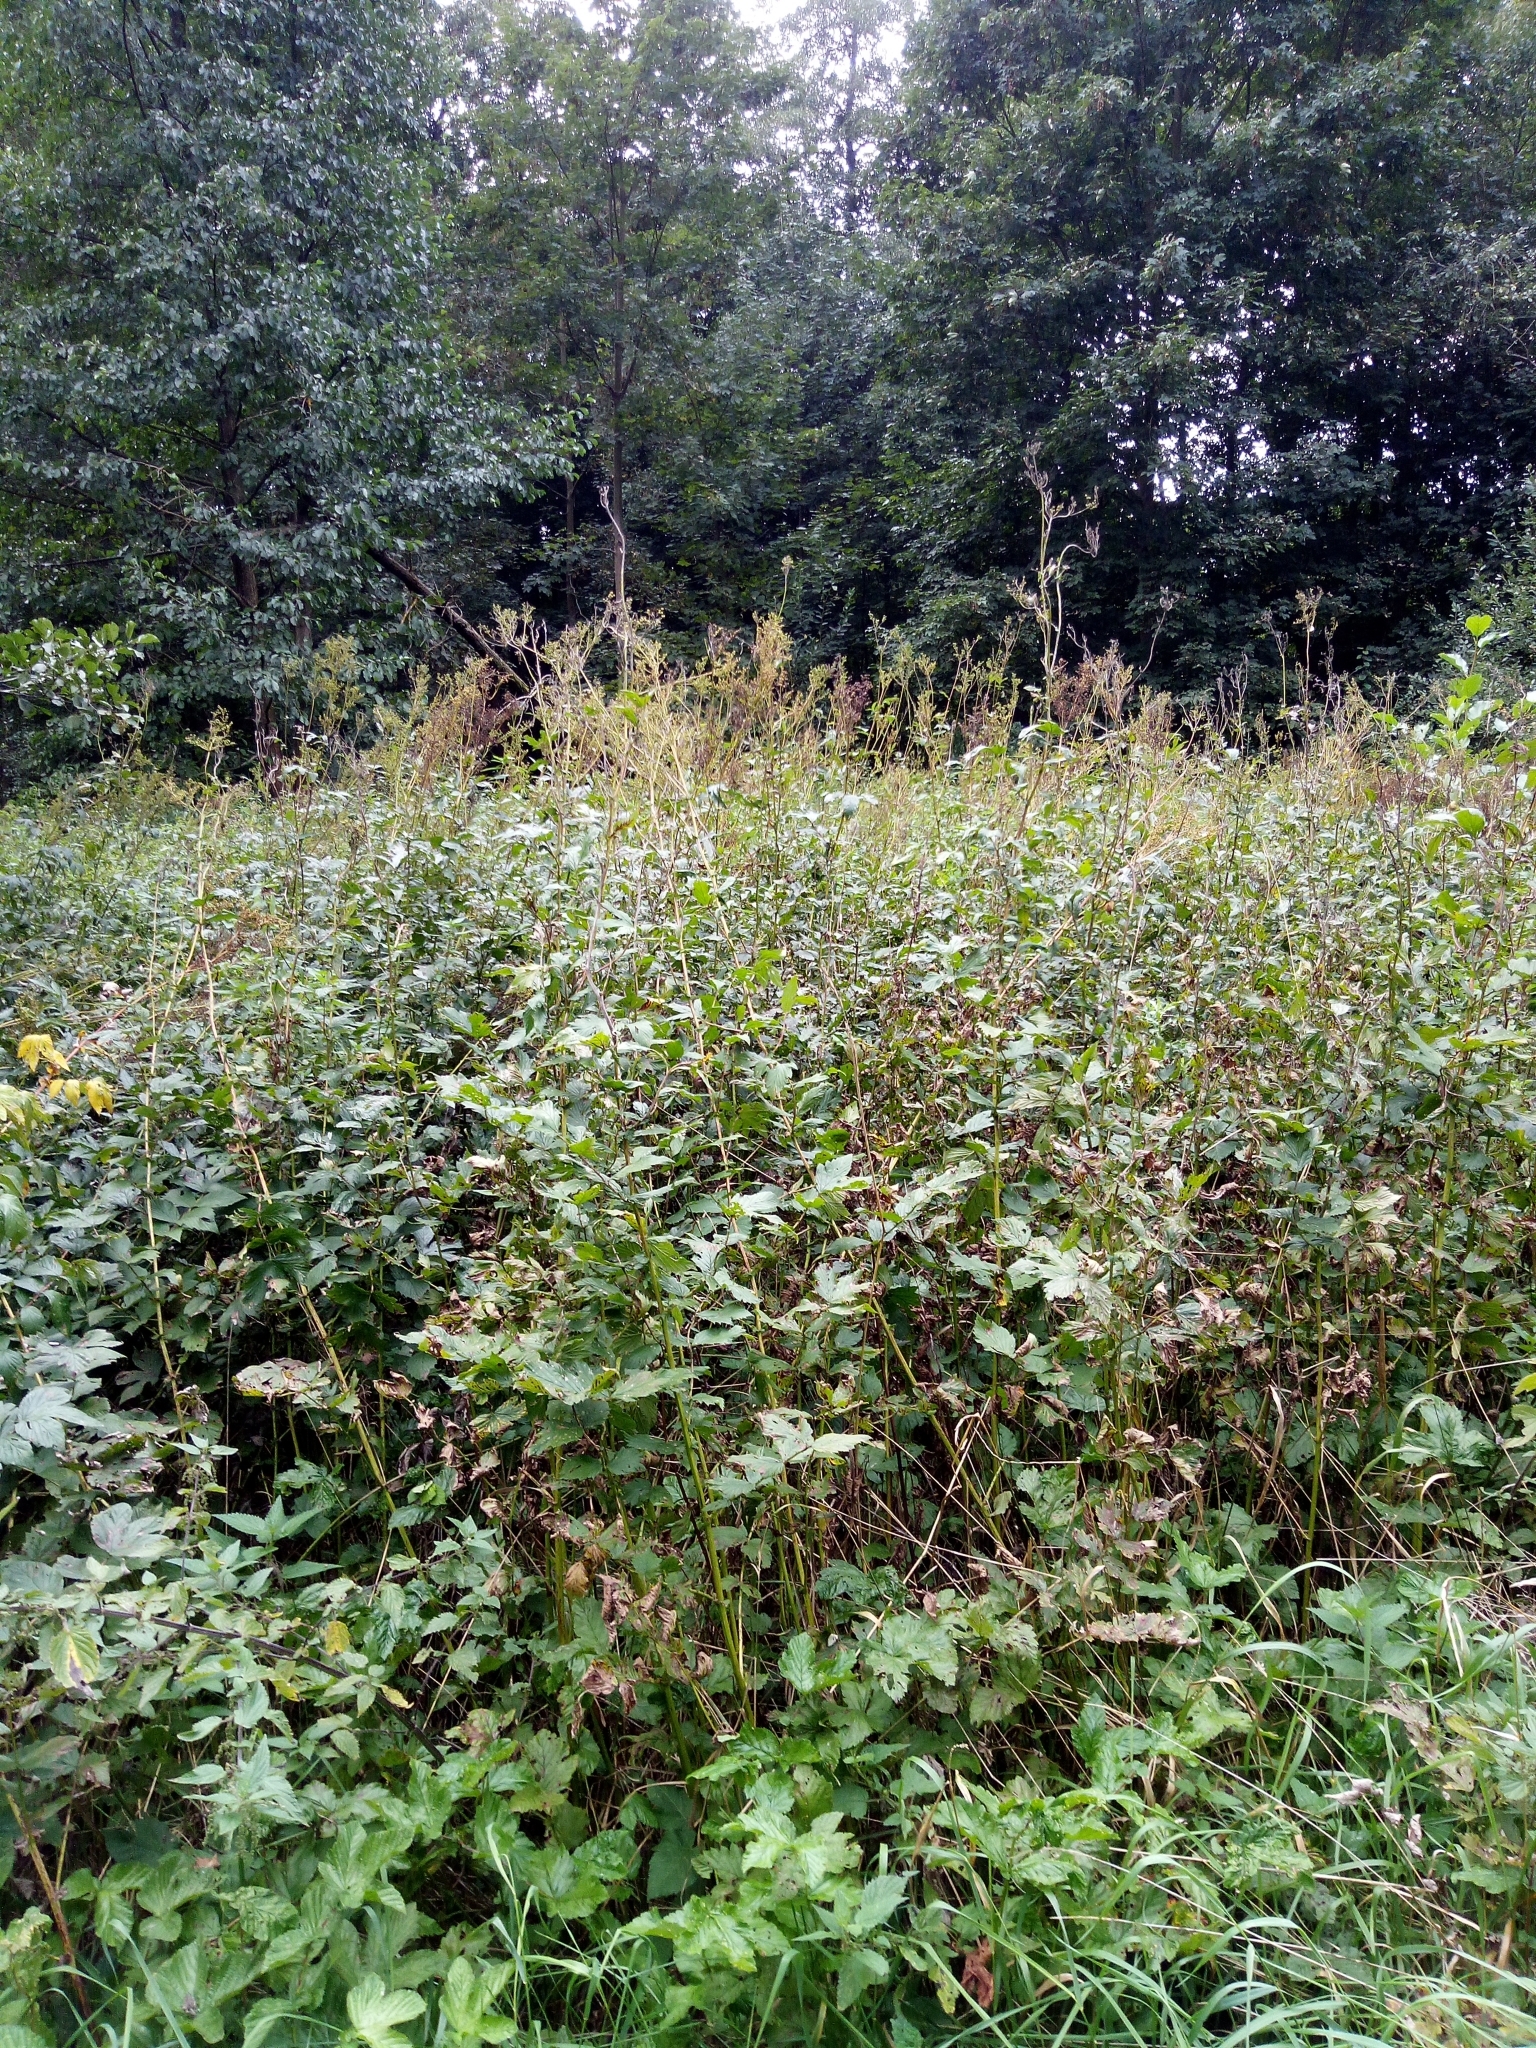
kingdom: Plantae
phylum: Tracheophyta
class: Magnoliopsida
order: Rosales
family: Rosaceae
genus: Filipendula
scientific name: Filipendula ulmaria
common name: Meadowsweet
